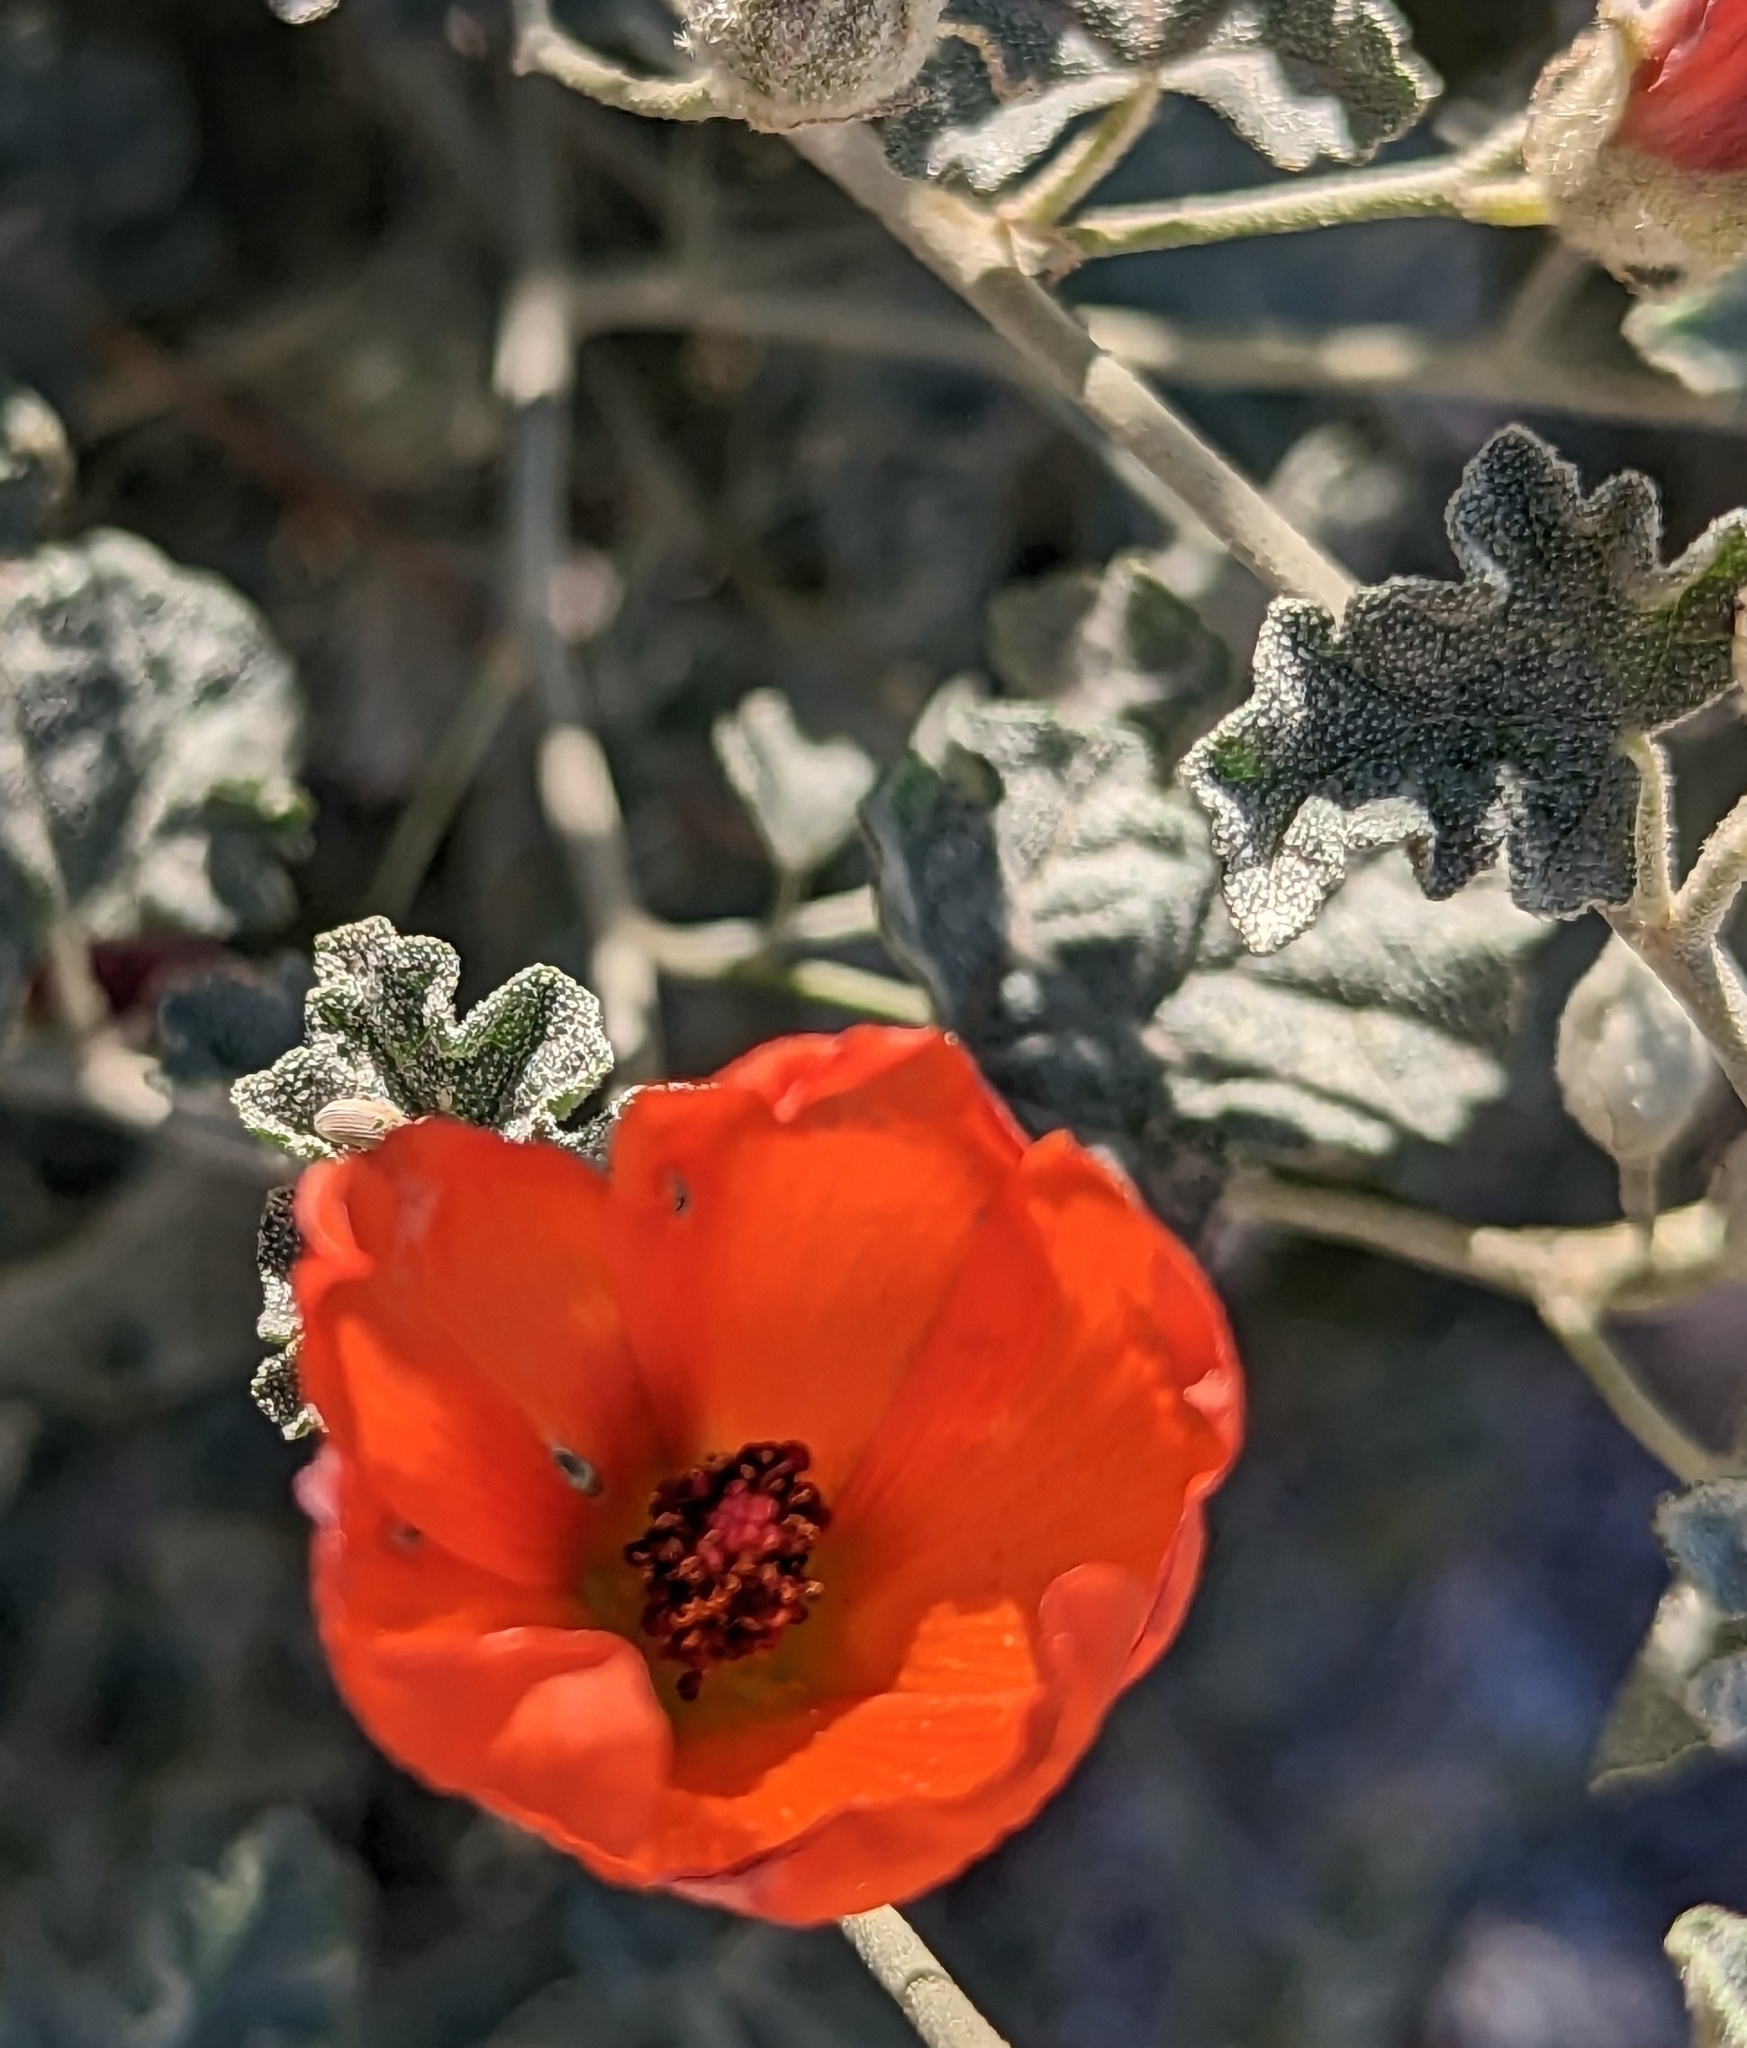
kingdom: Plantae
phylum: Tracheophyta
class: Magnoliopsida
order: Malvales
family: Malvaceae
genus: Sphaeralcea
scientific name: Sphaeralcea ambigua
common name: Apricot globe-mallow
